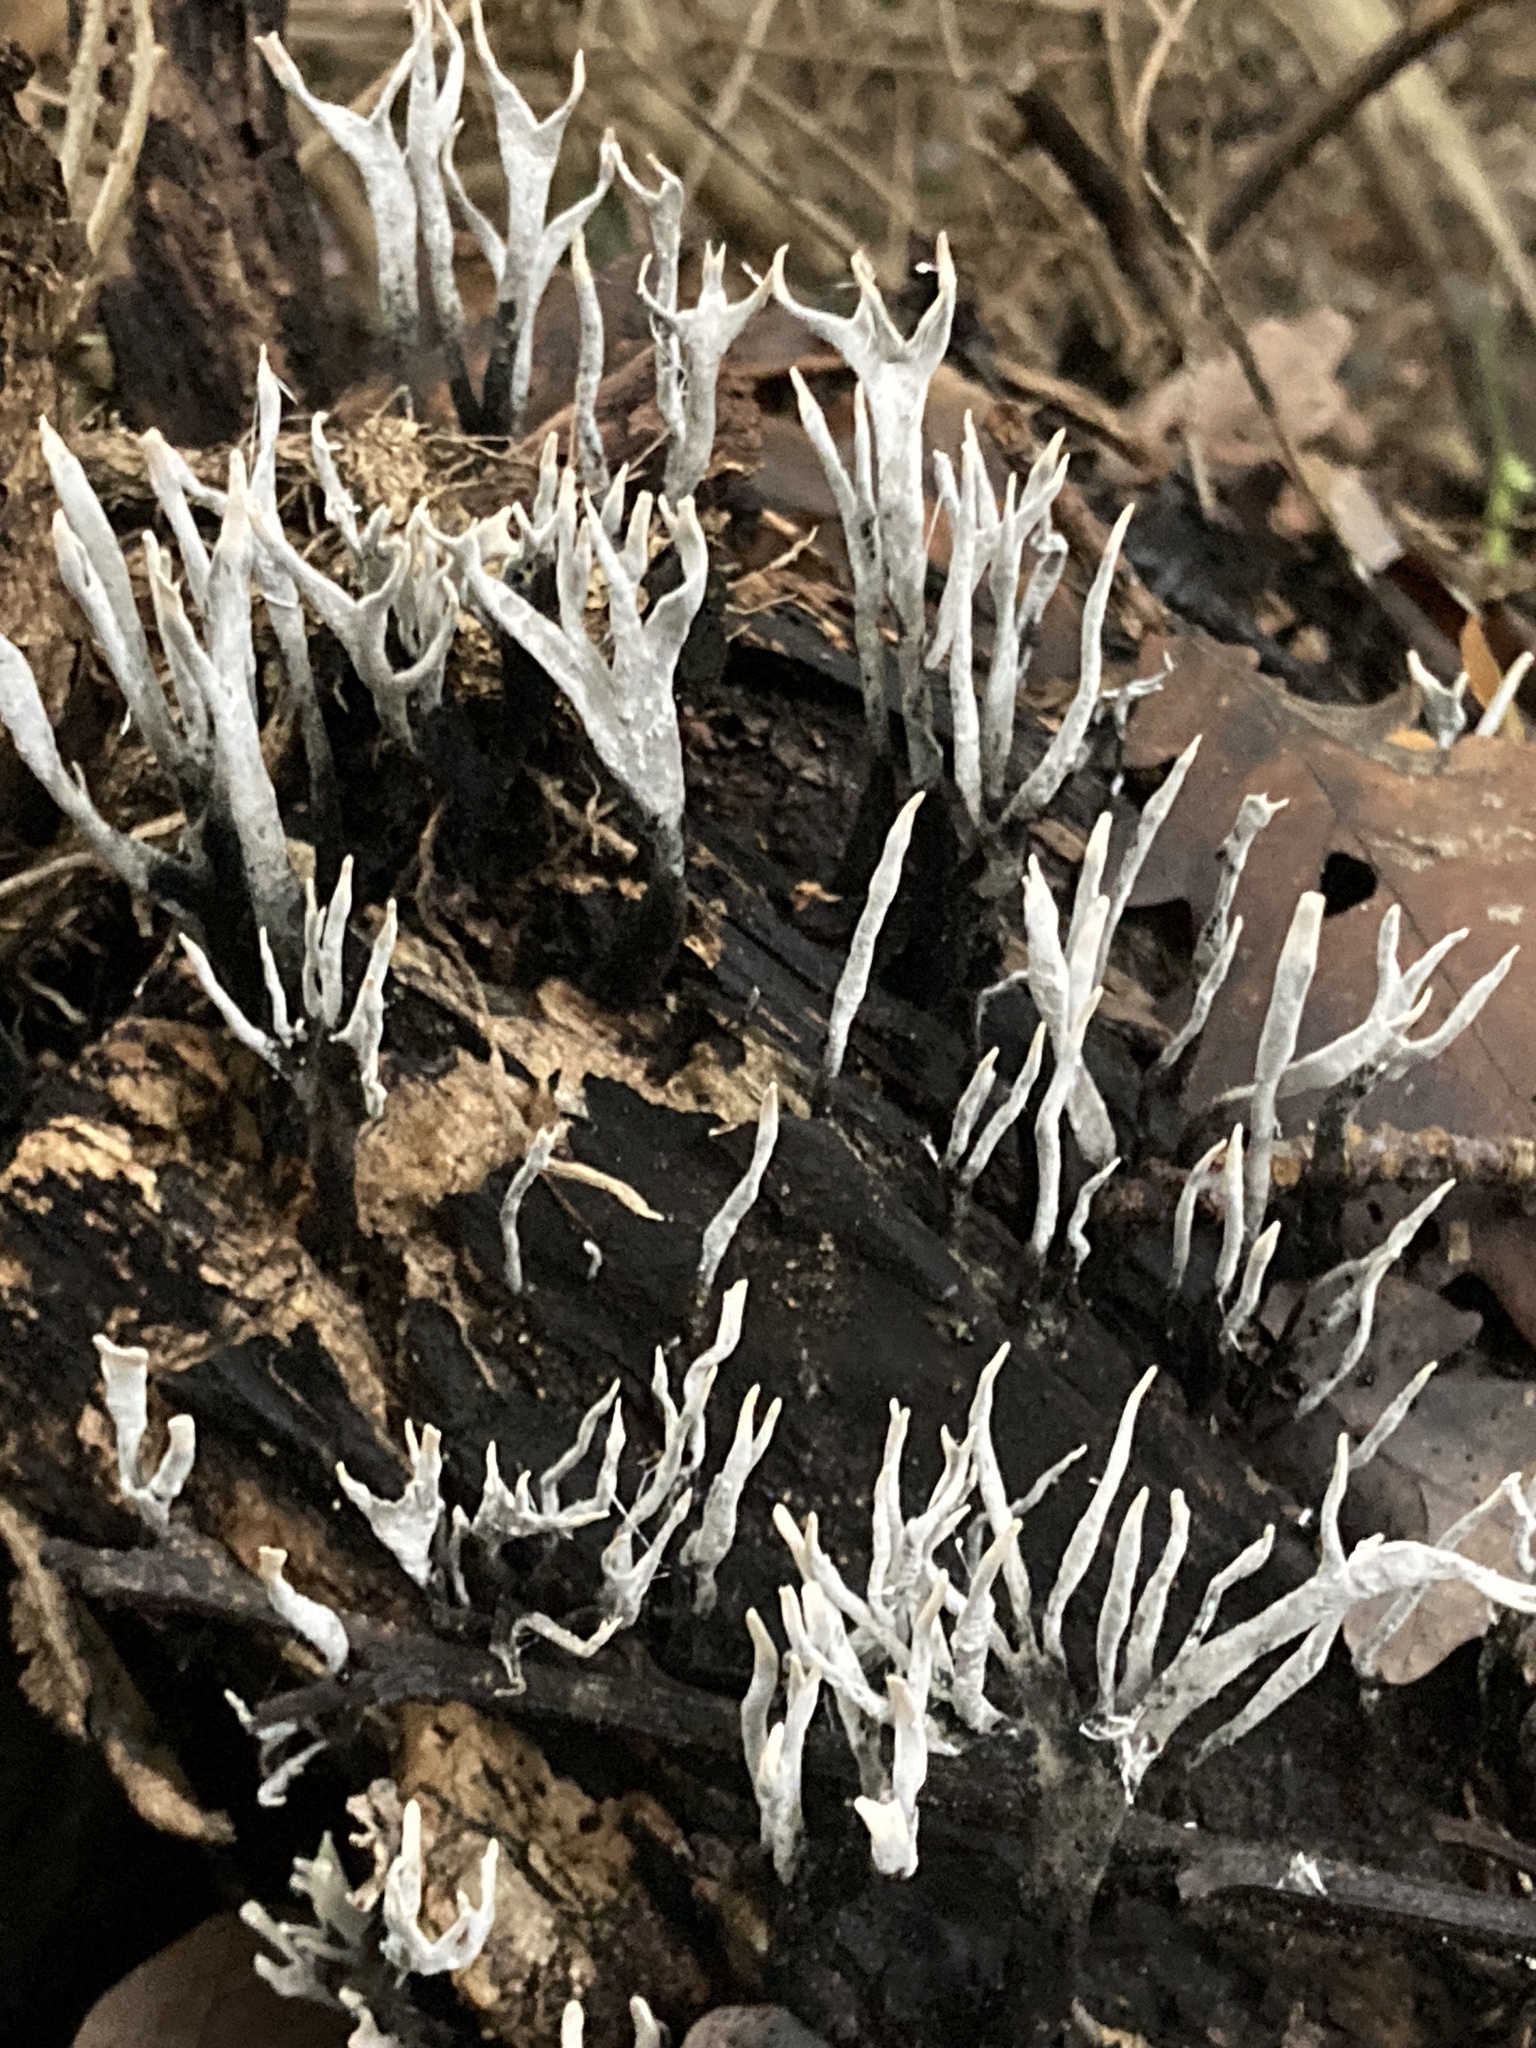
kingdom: Fungi
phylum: Ascomycota
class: Sordariomycetes
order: Xylariales
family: Xylariaceae
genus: Xylaria
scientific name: Xylaria hypoxylon
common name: Candle-snuff fungus
